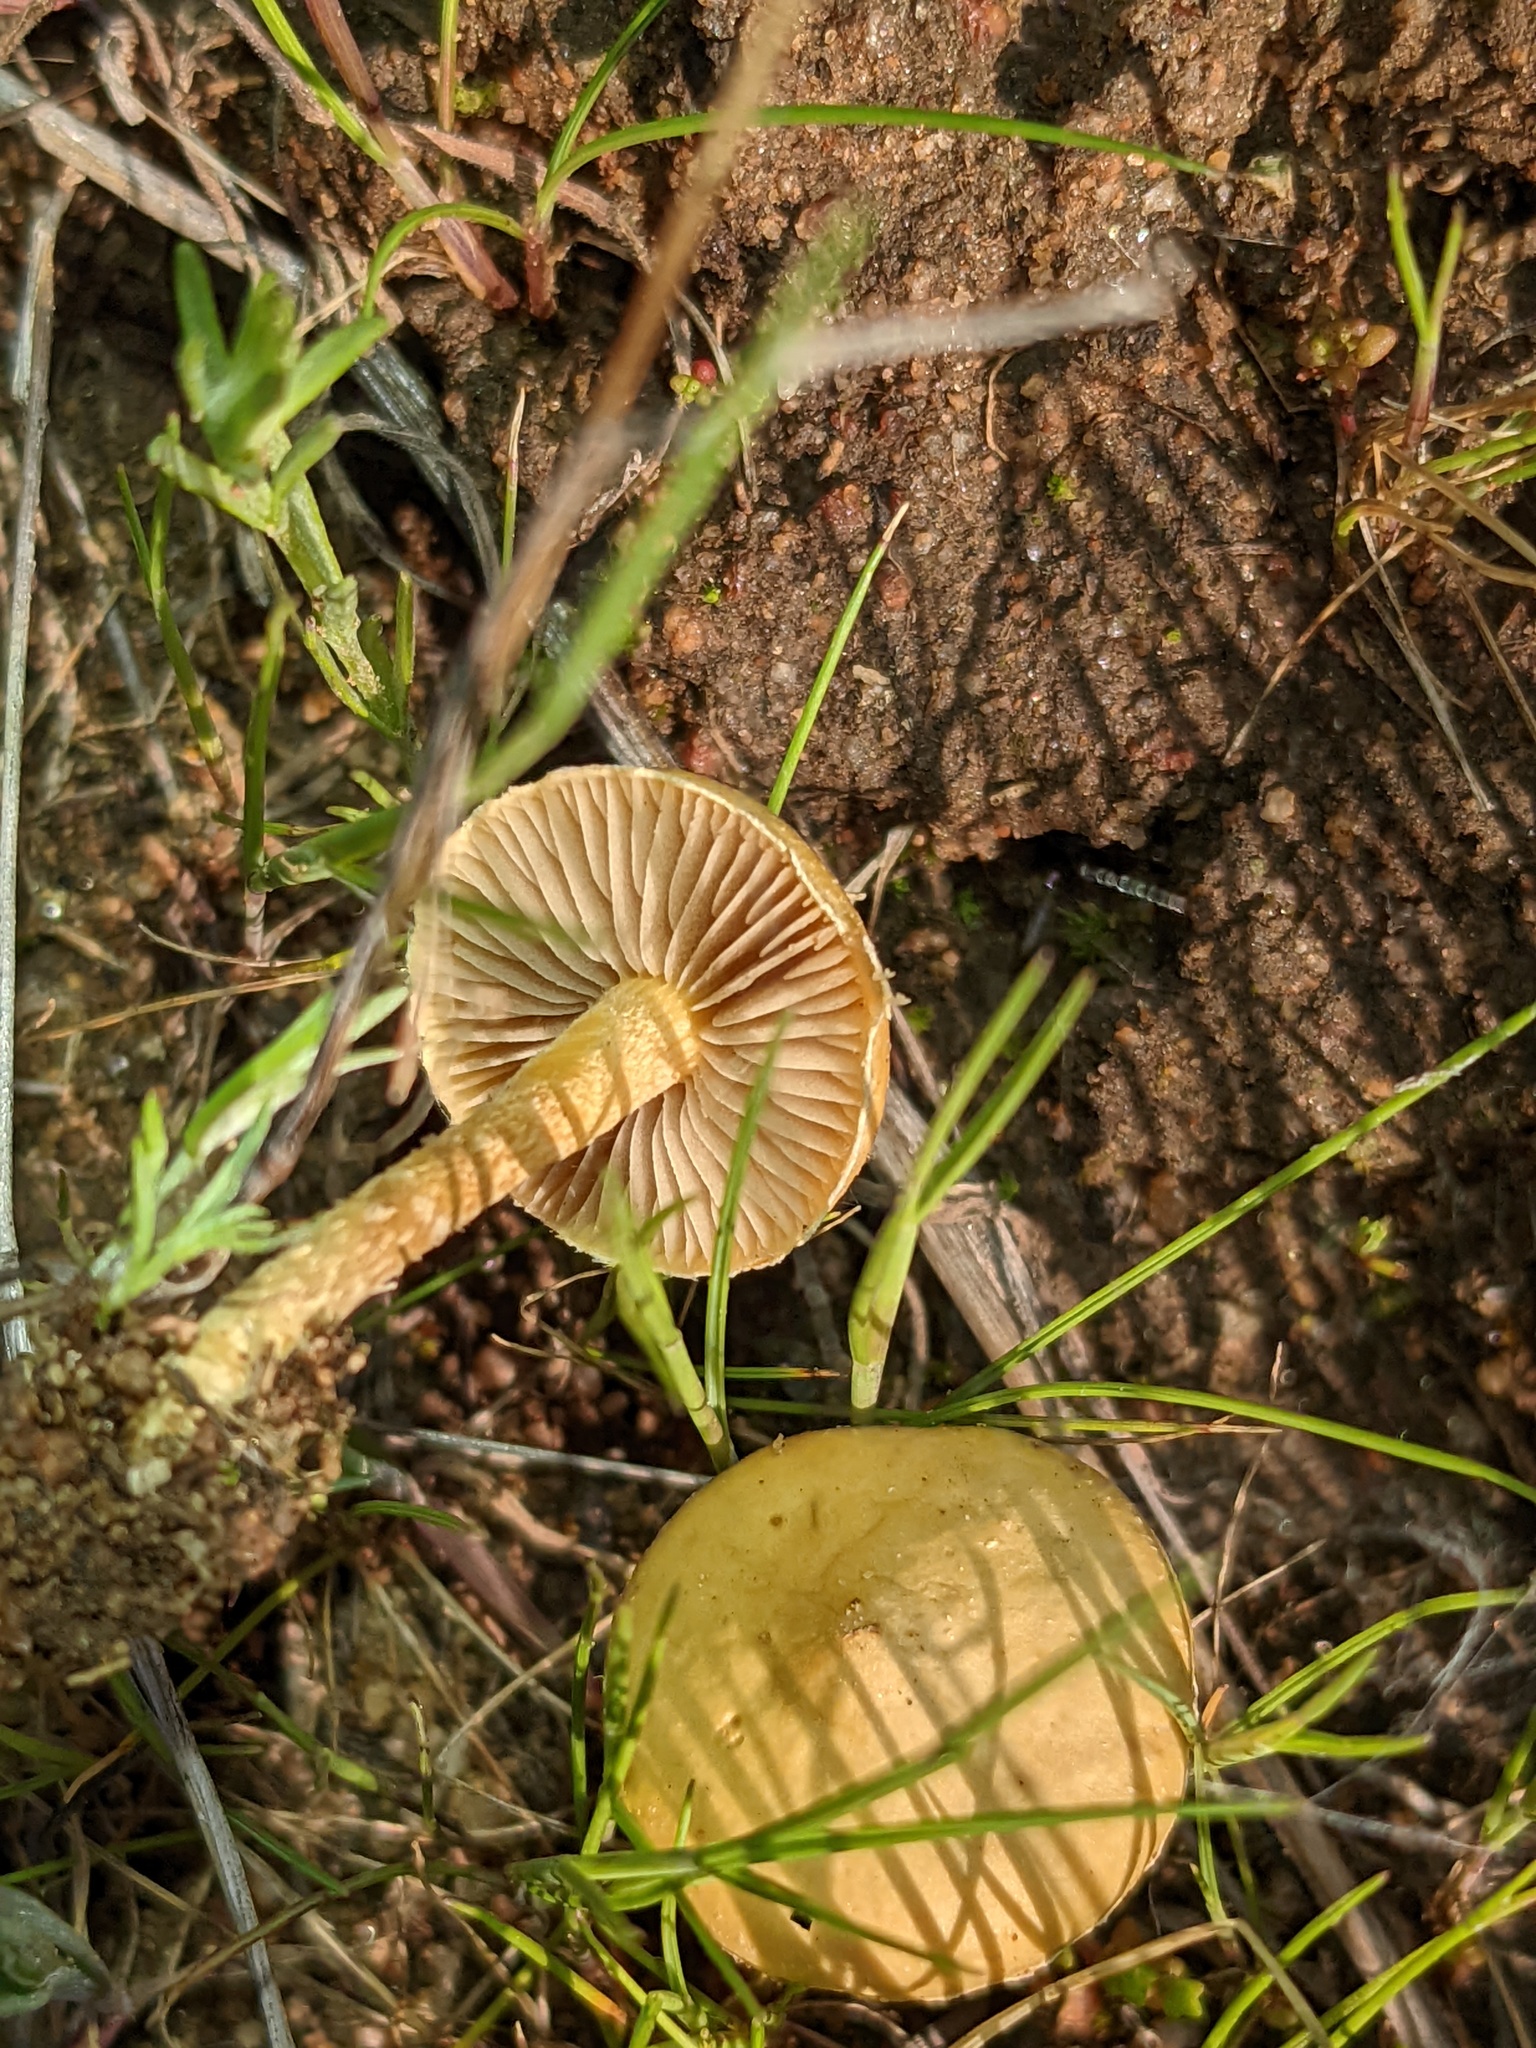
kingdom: Fungi
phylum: Basidiomycota
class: Agaricomycetes
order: Agaricales
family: Strophariaceae
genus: Agrocybe
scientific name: Agrocybe pediades
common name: Common fieldcap
